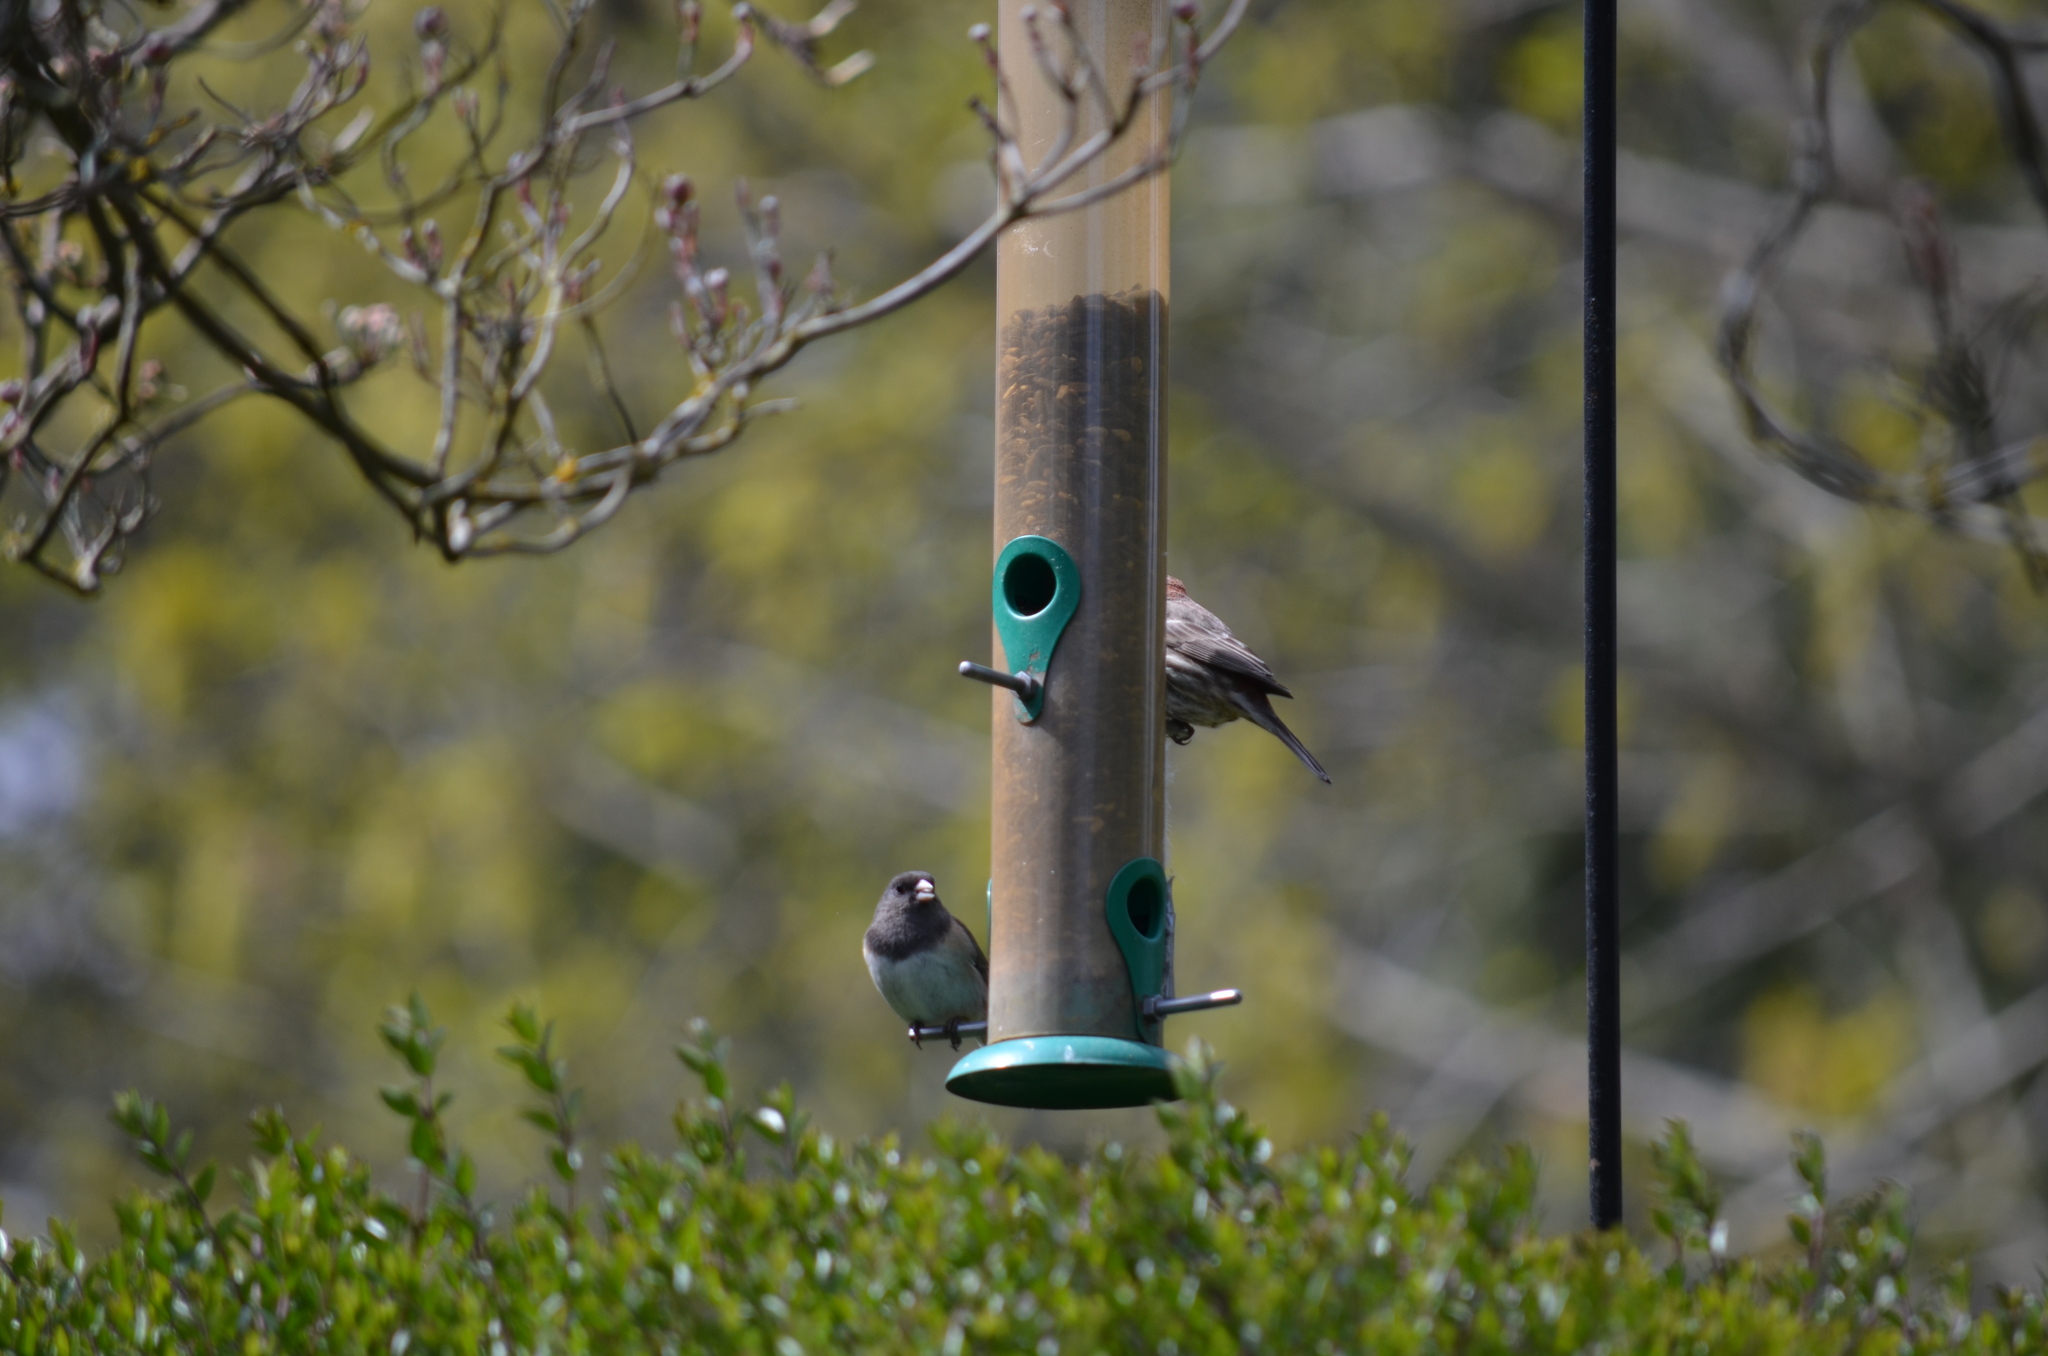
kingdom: Animalia
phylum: Chordata
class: Aves
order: Passeriformes
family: Fringillidae
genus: Haemorhous
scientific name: Haemorhous mexicanus
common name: House finch
